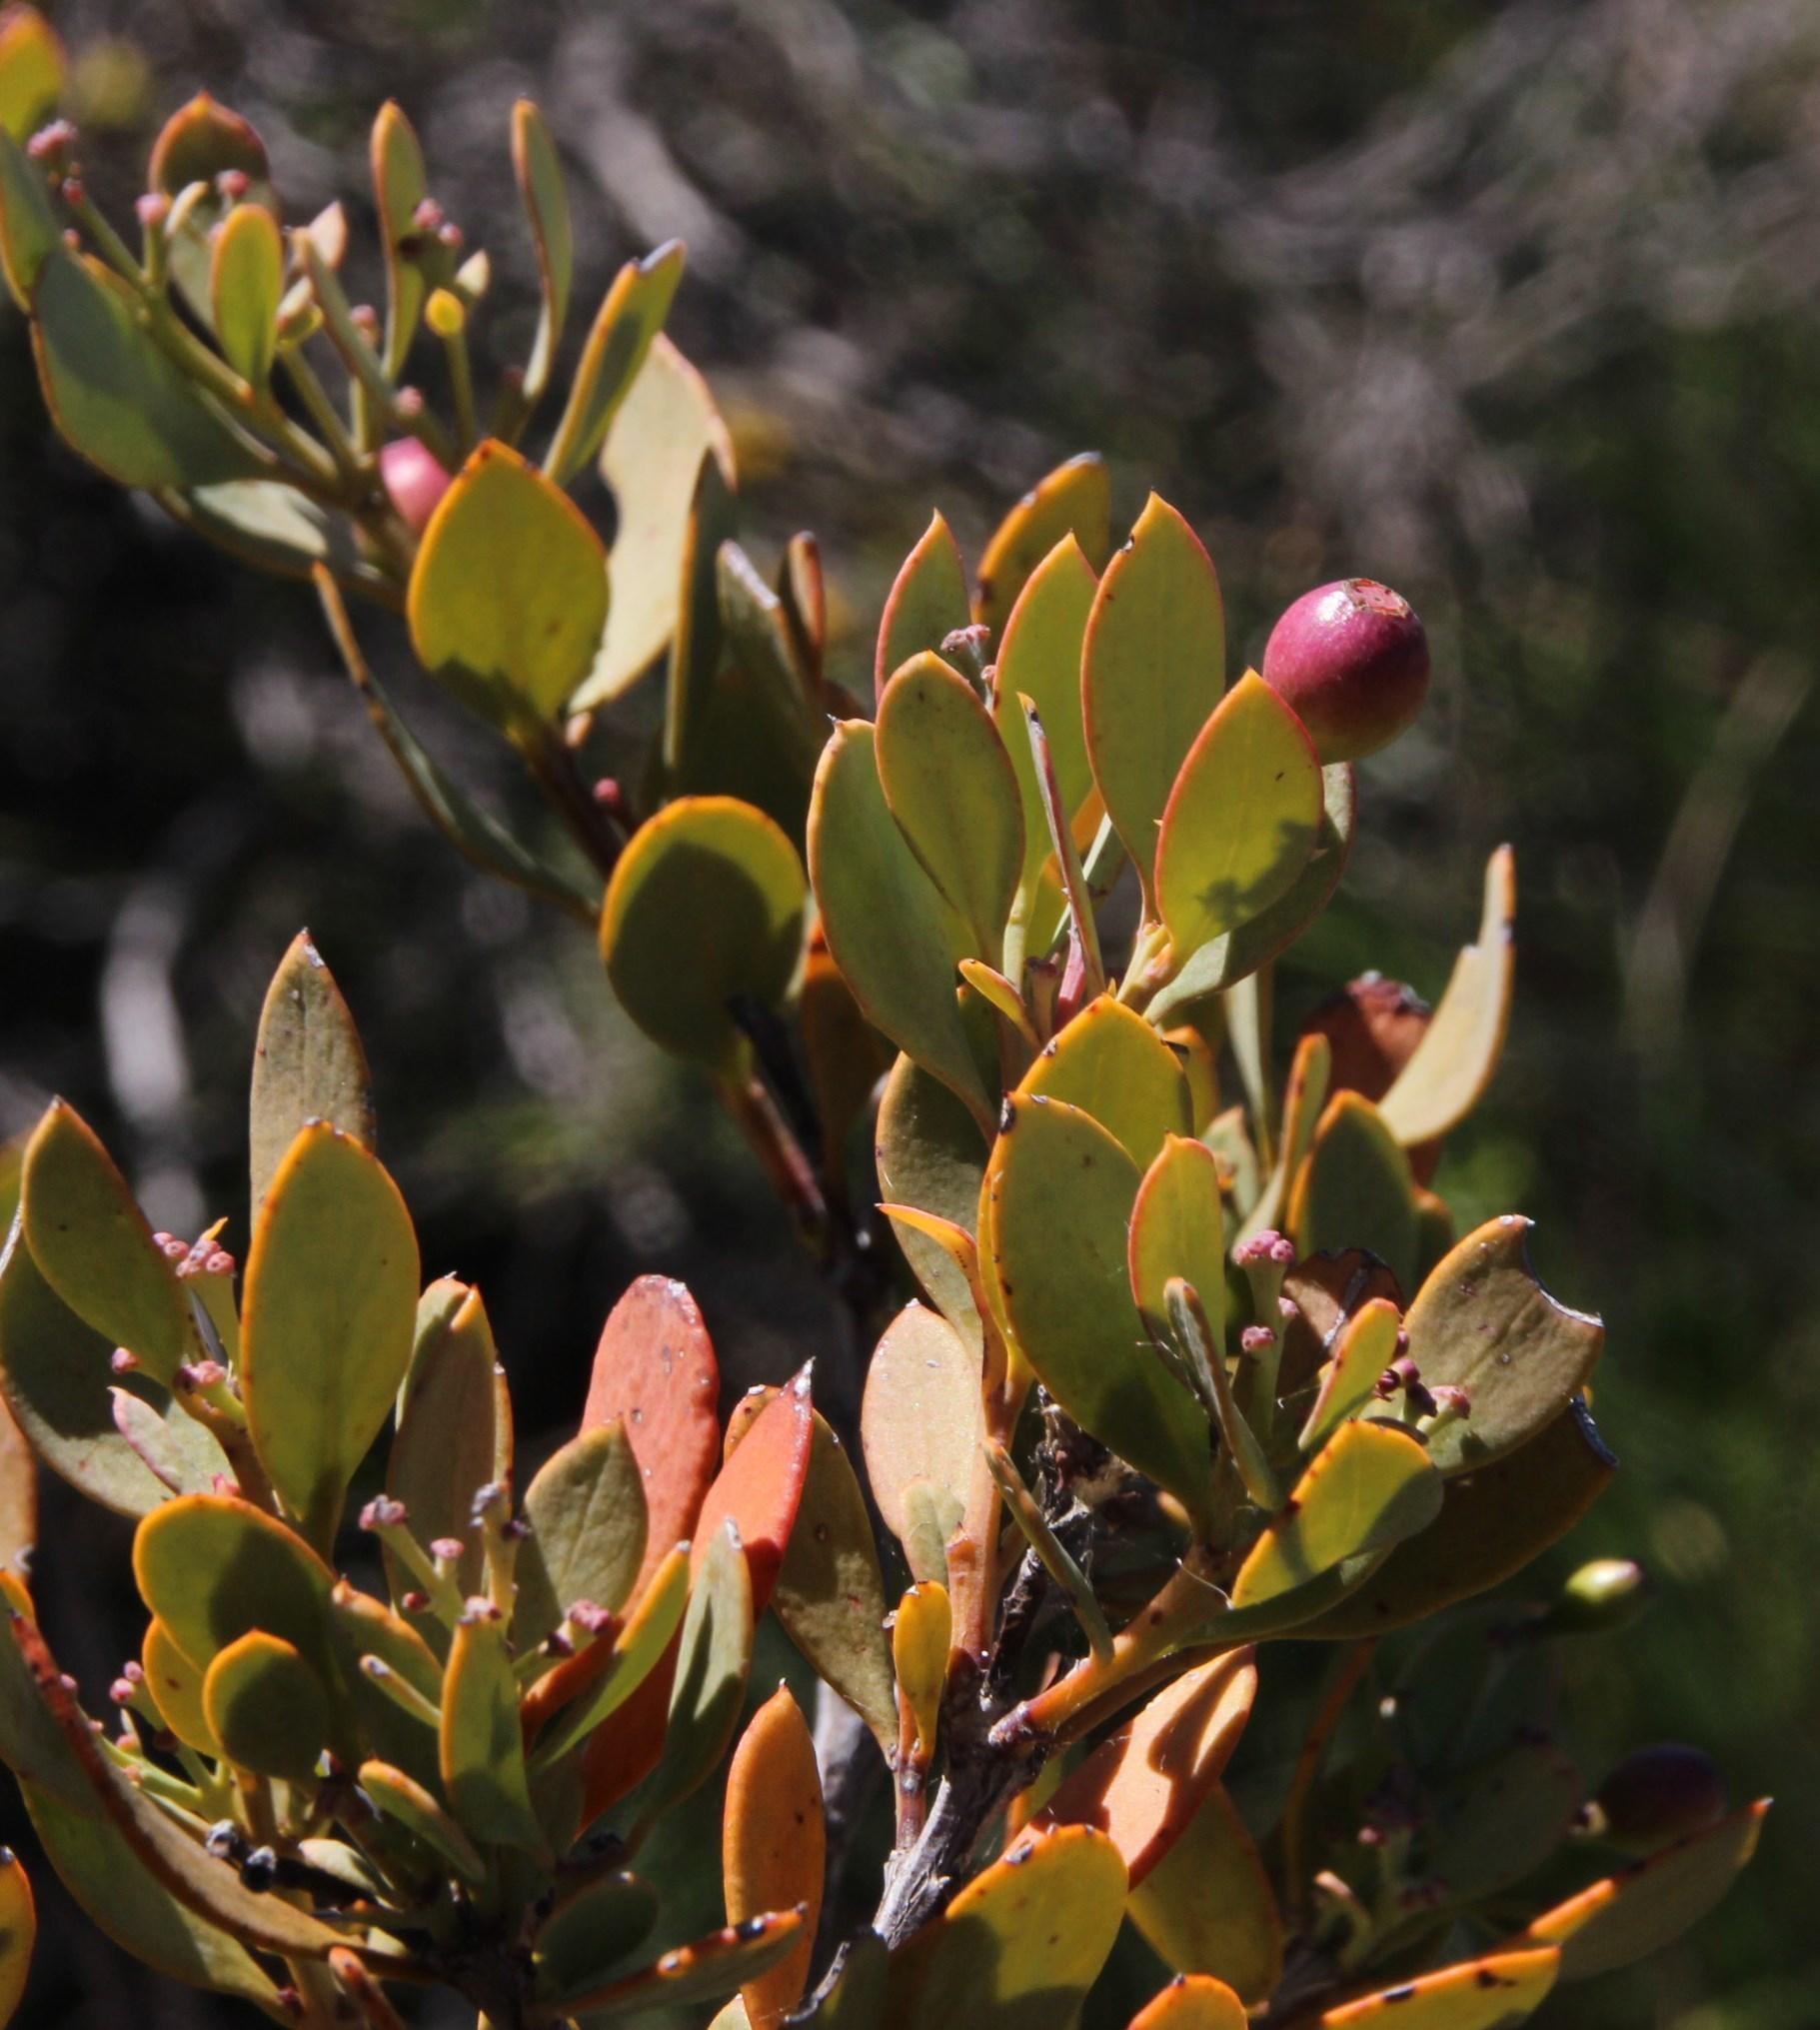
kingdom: Plantae
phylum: Tracheophyta
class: Magnoliopsida
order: Santalales
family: Santalaceae
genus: Osyris
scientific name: Osyris compressa
